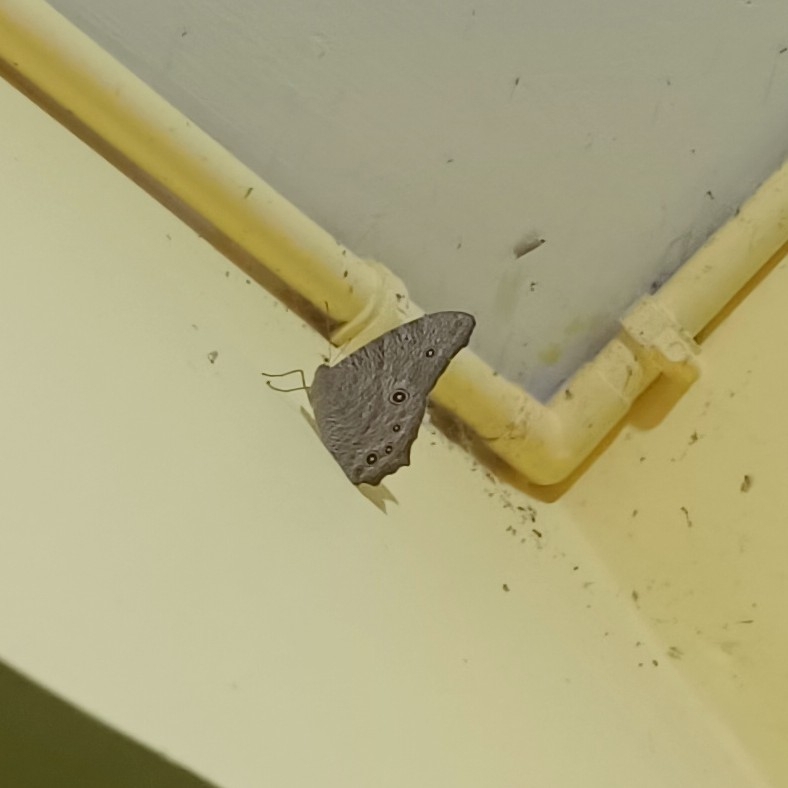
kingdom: Animalia
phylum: Arthropoda
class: Insecta
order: Lepidoptera
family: Nymphalidae
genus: Melanitis
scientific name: Melanitis leda
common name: Twilight brown
